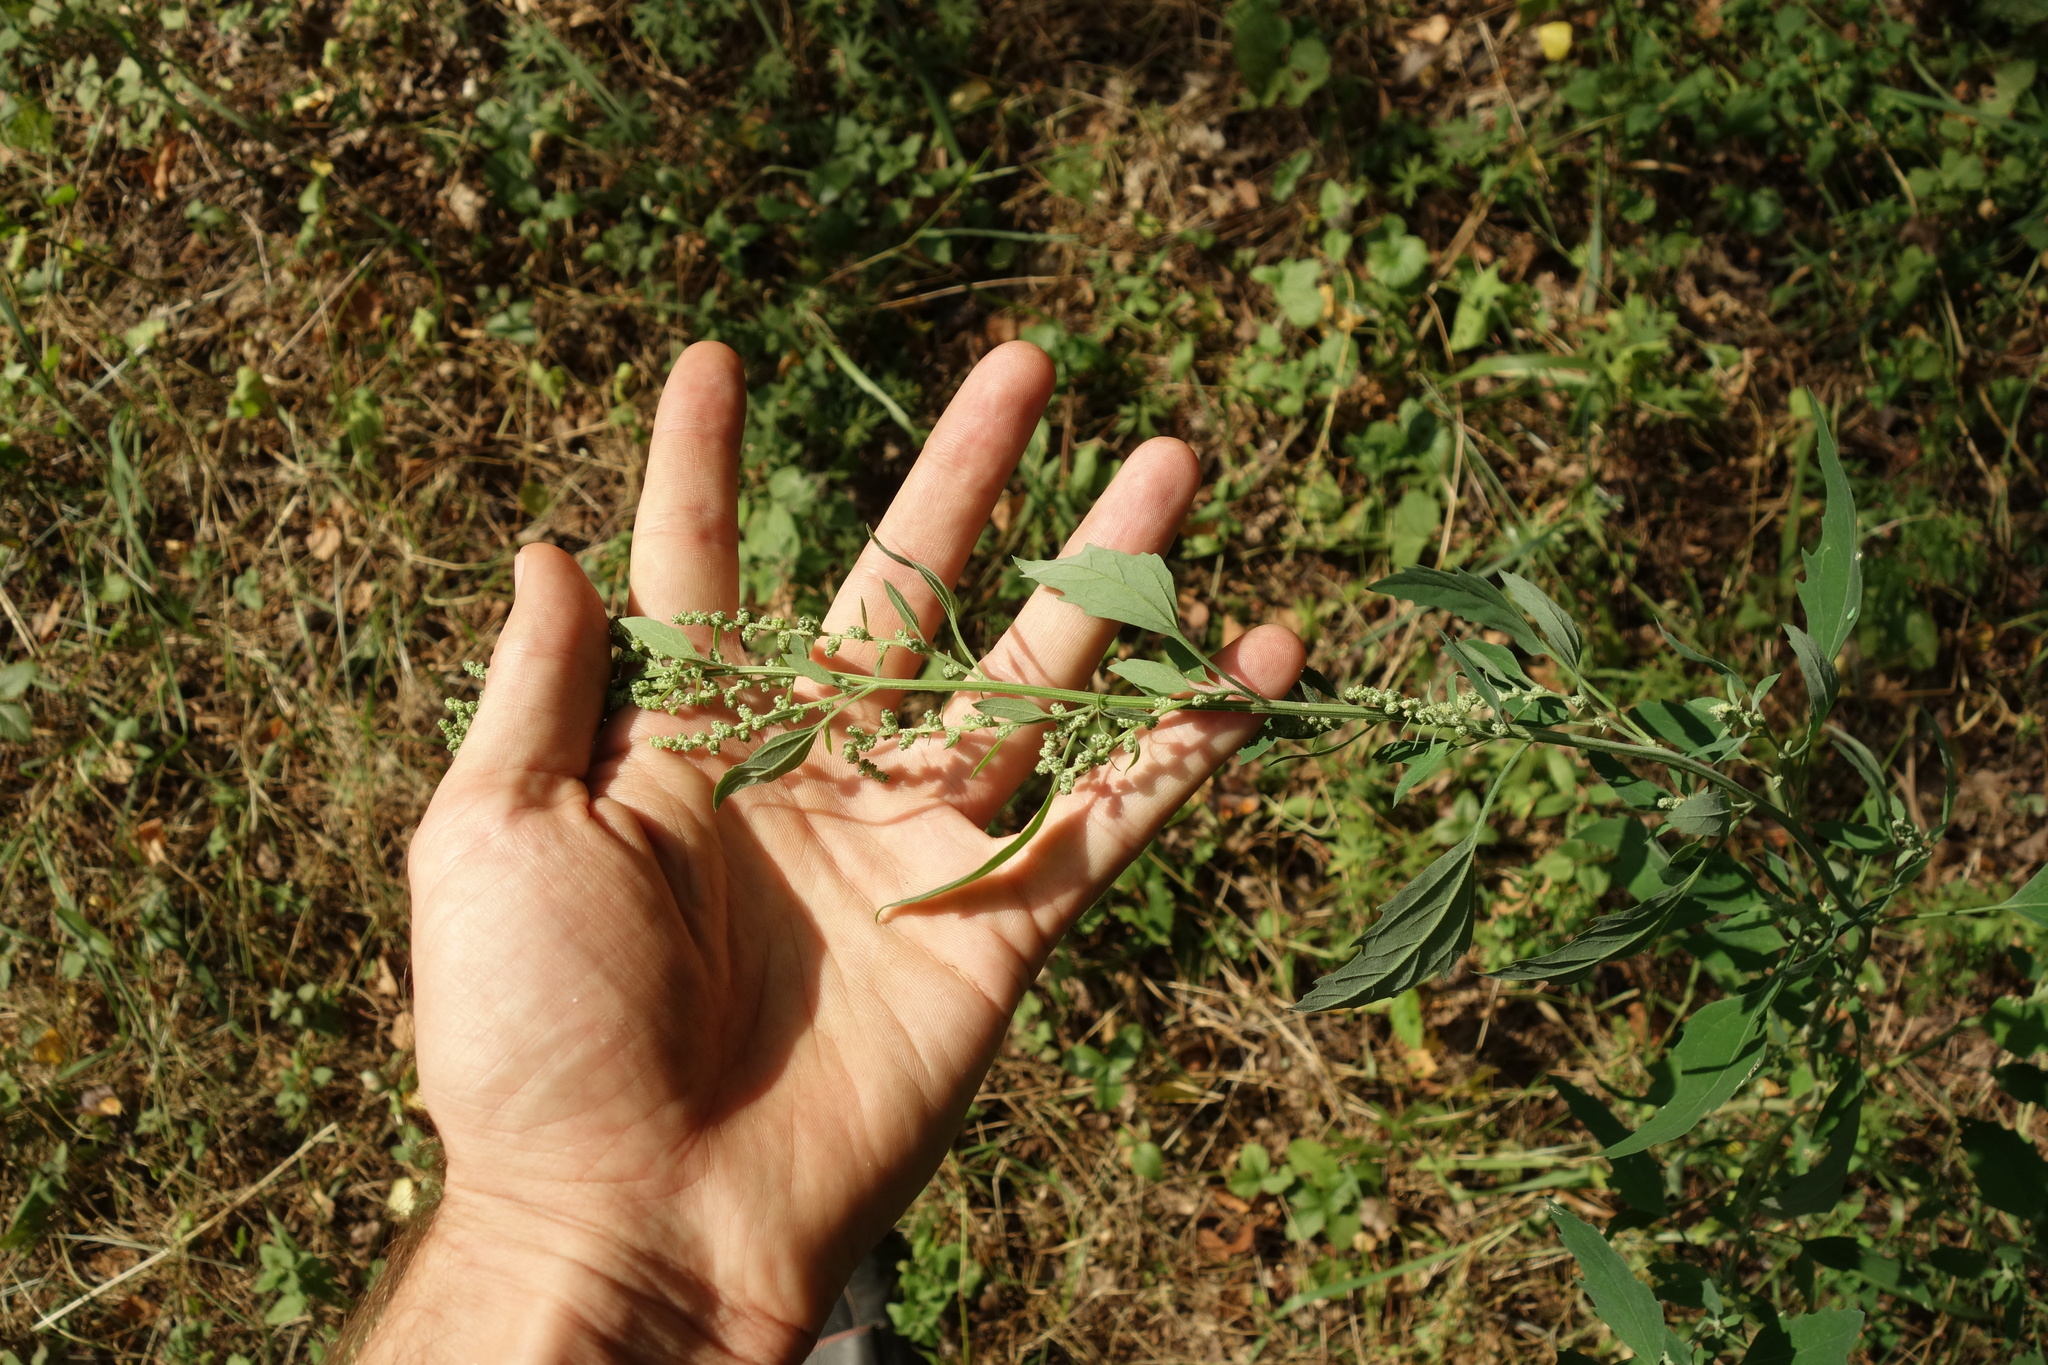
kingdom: Plantae
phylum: Tracheophyta
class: Magnoliopsida
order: Caryophyllales
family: Amaranthaceae
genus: Chenopodium
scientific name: Chenopodium album
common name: Fat-hen
